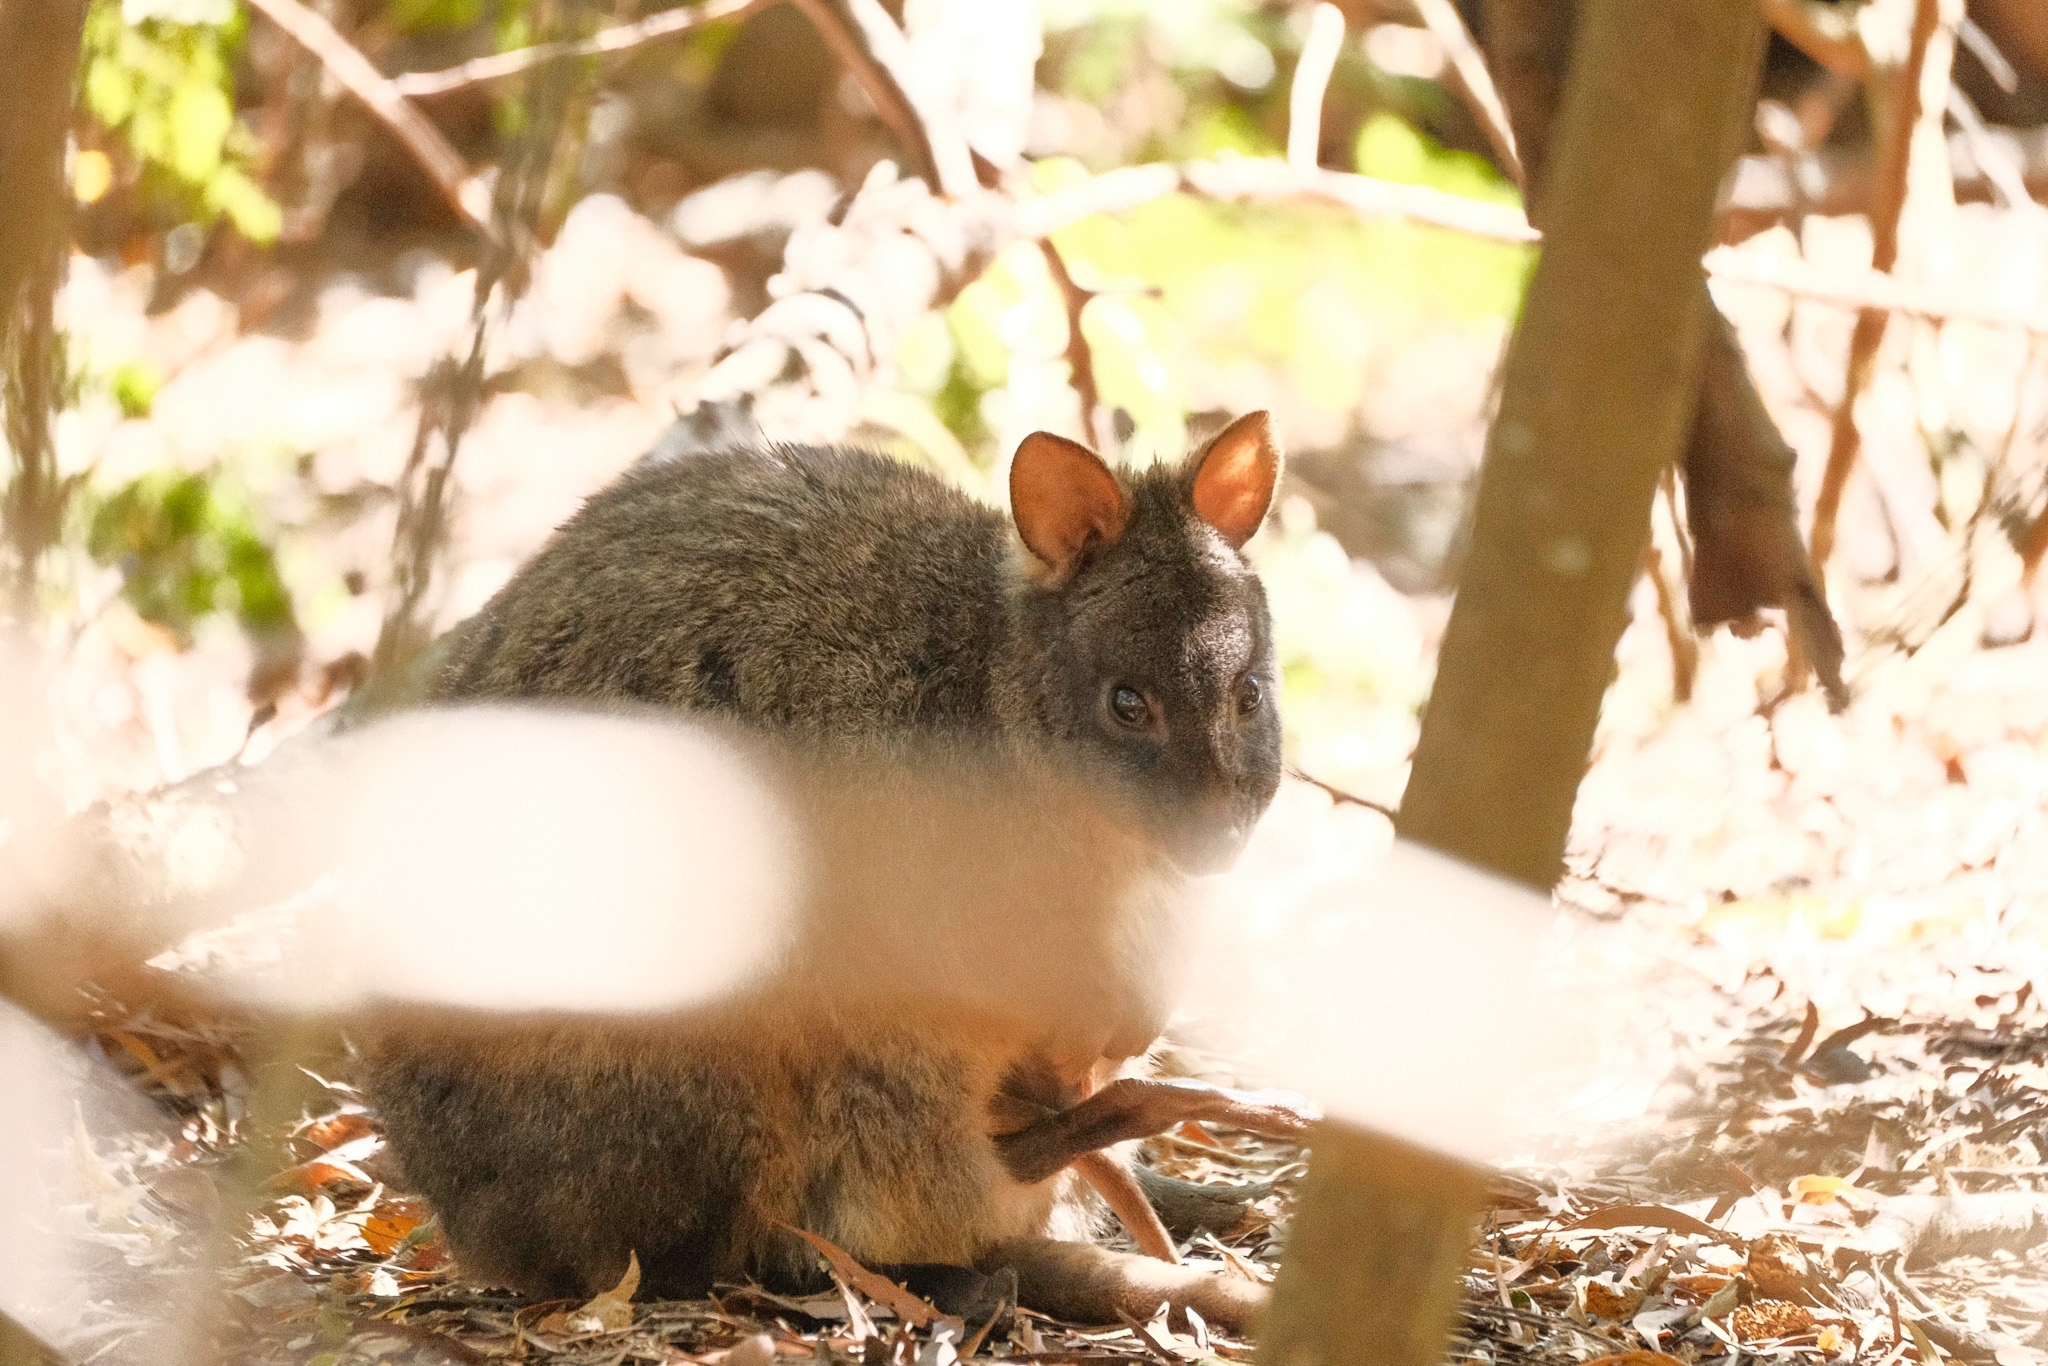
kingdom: Animalia
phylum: Chordata
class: Mammalia
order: Diprotodontia
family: Macropodidae
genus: Thylogale
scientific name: Thylogale billardierii
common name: Tasmanian pademelon
